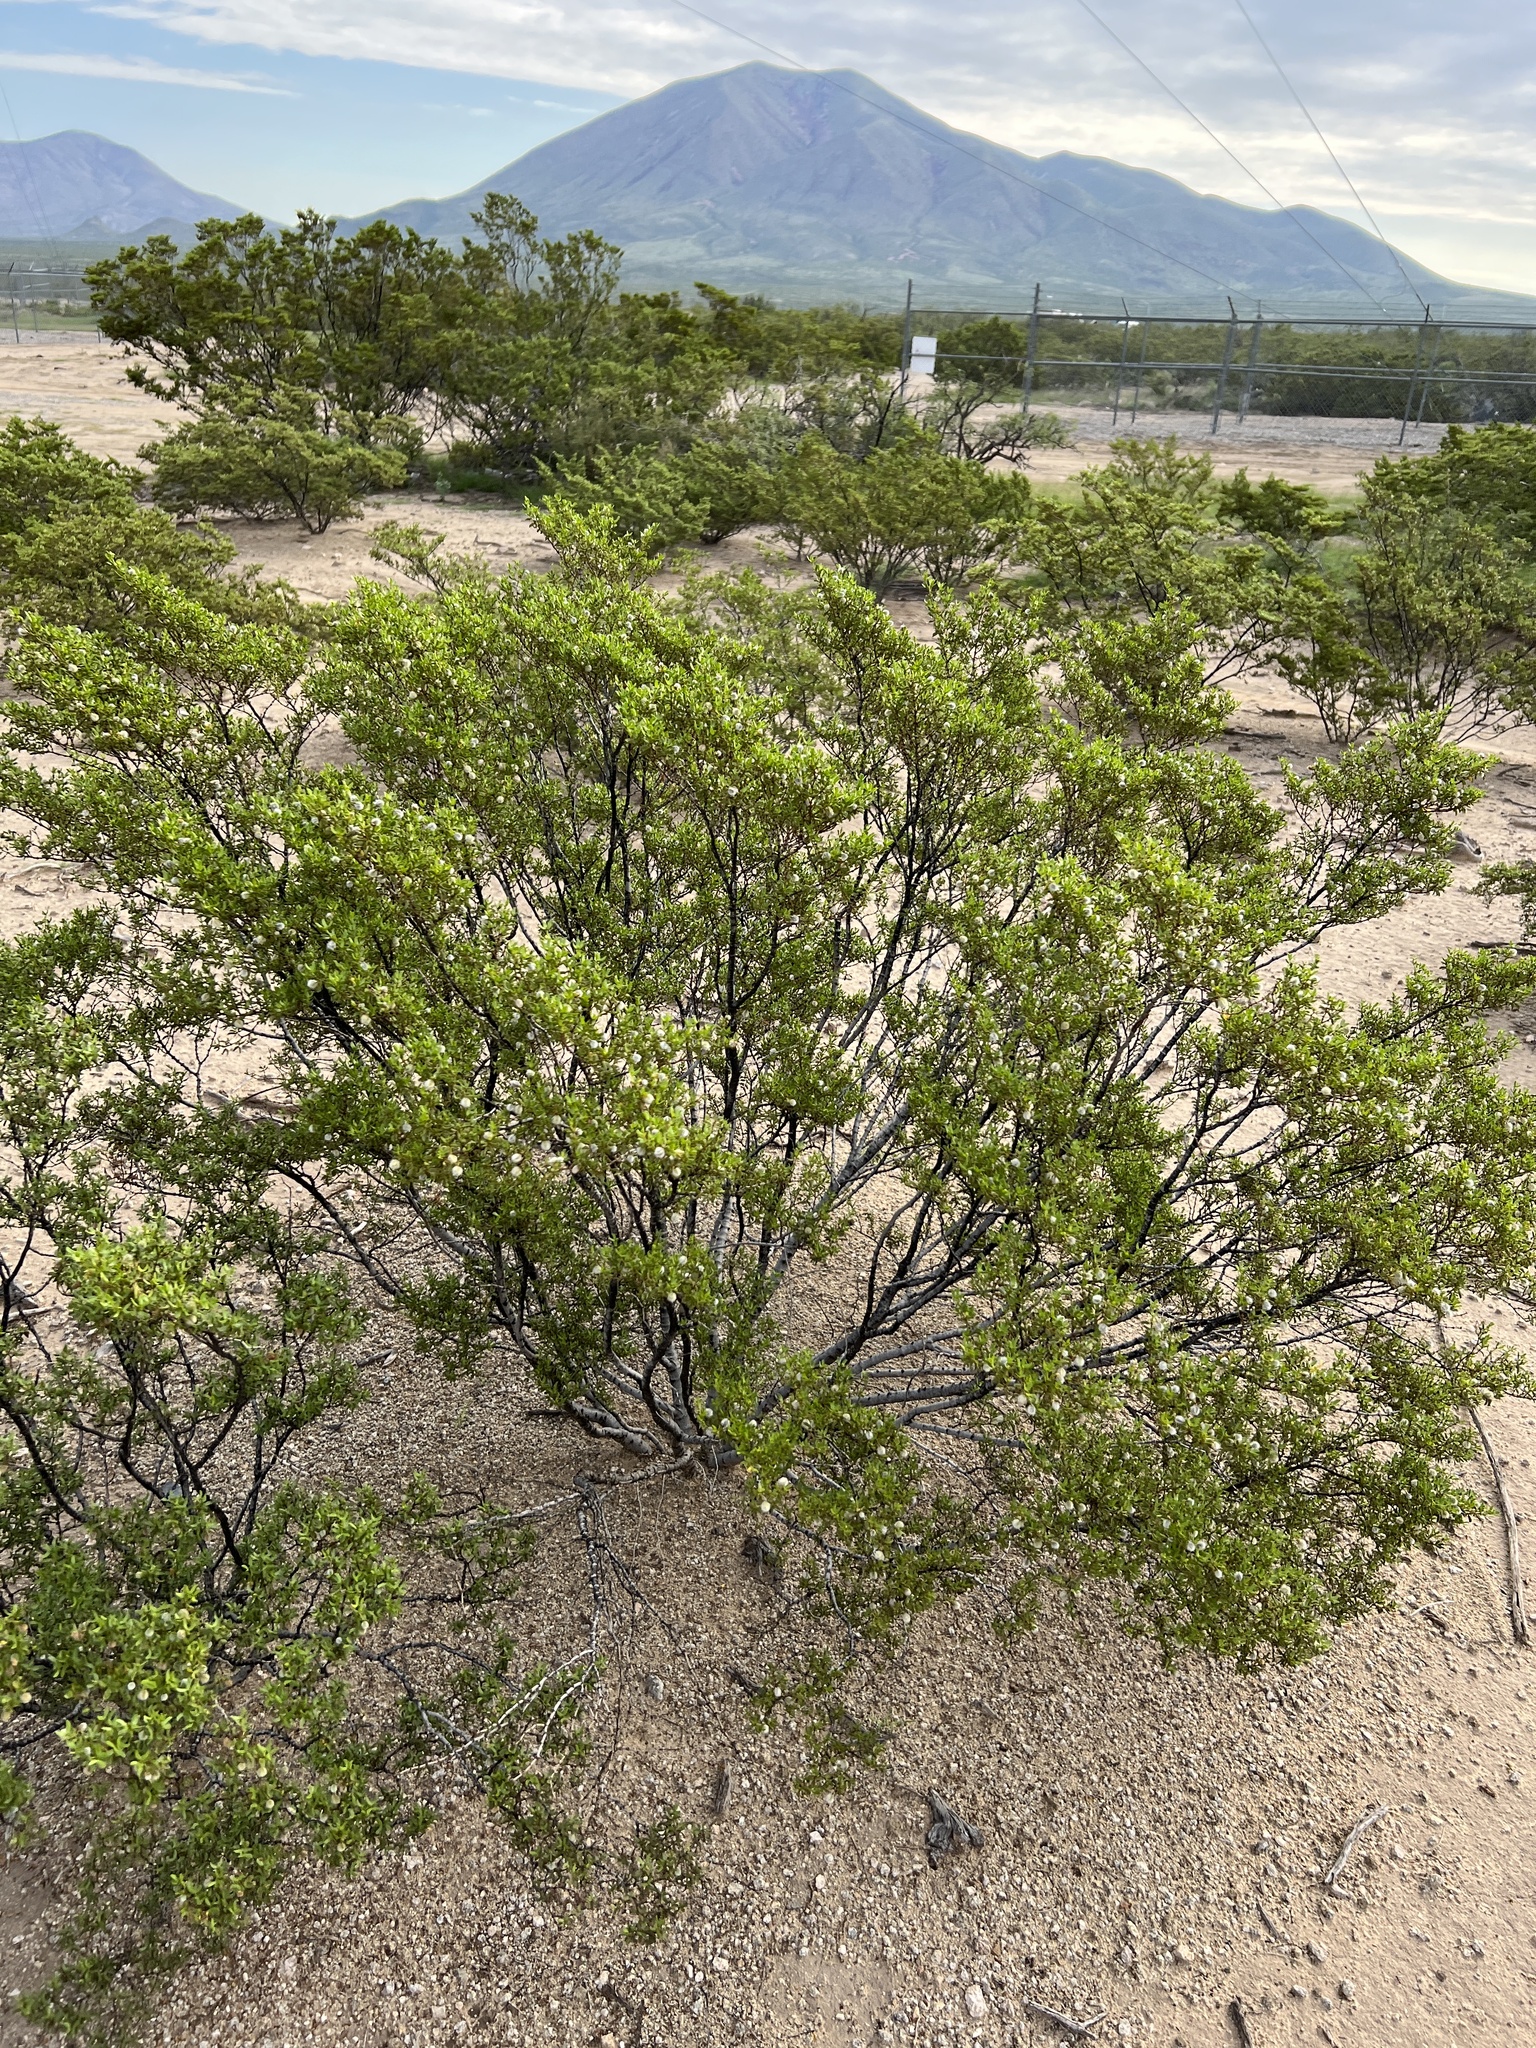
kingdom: Plantae
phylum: Tracheophyta
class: Magnoliopsida
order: Zygophyllales
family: Zygophyllaceae
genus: Larrea
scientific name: Larrea tridentata
